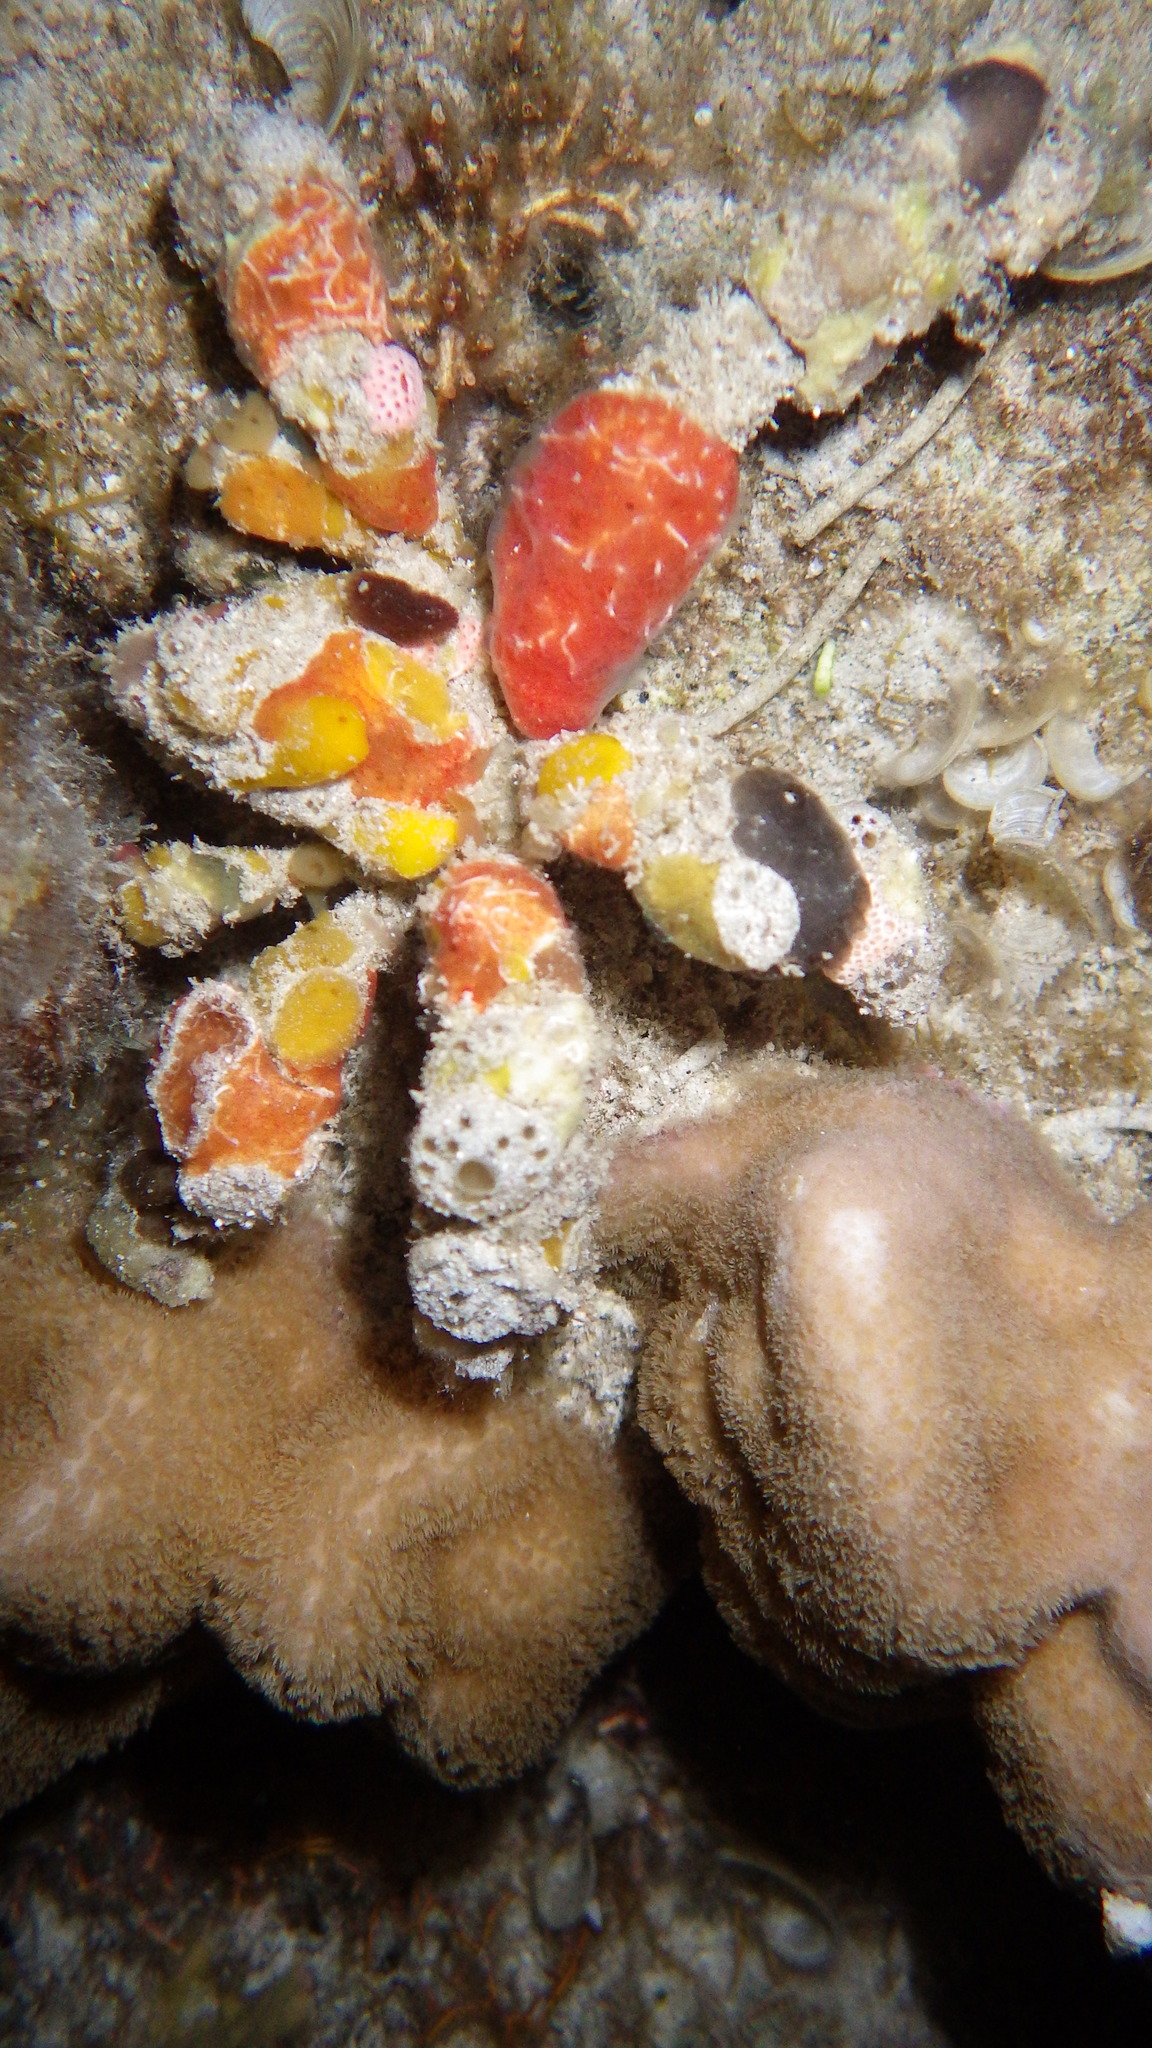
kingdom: Animalia
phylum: Arthropoda
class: Malacostraca
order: Decapoda
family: Inachidae
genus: Camposcia
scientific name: Camposcia retusa
